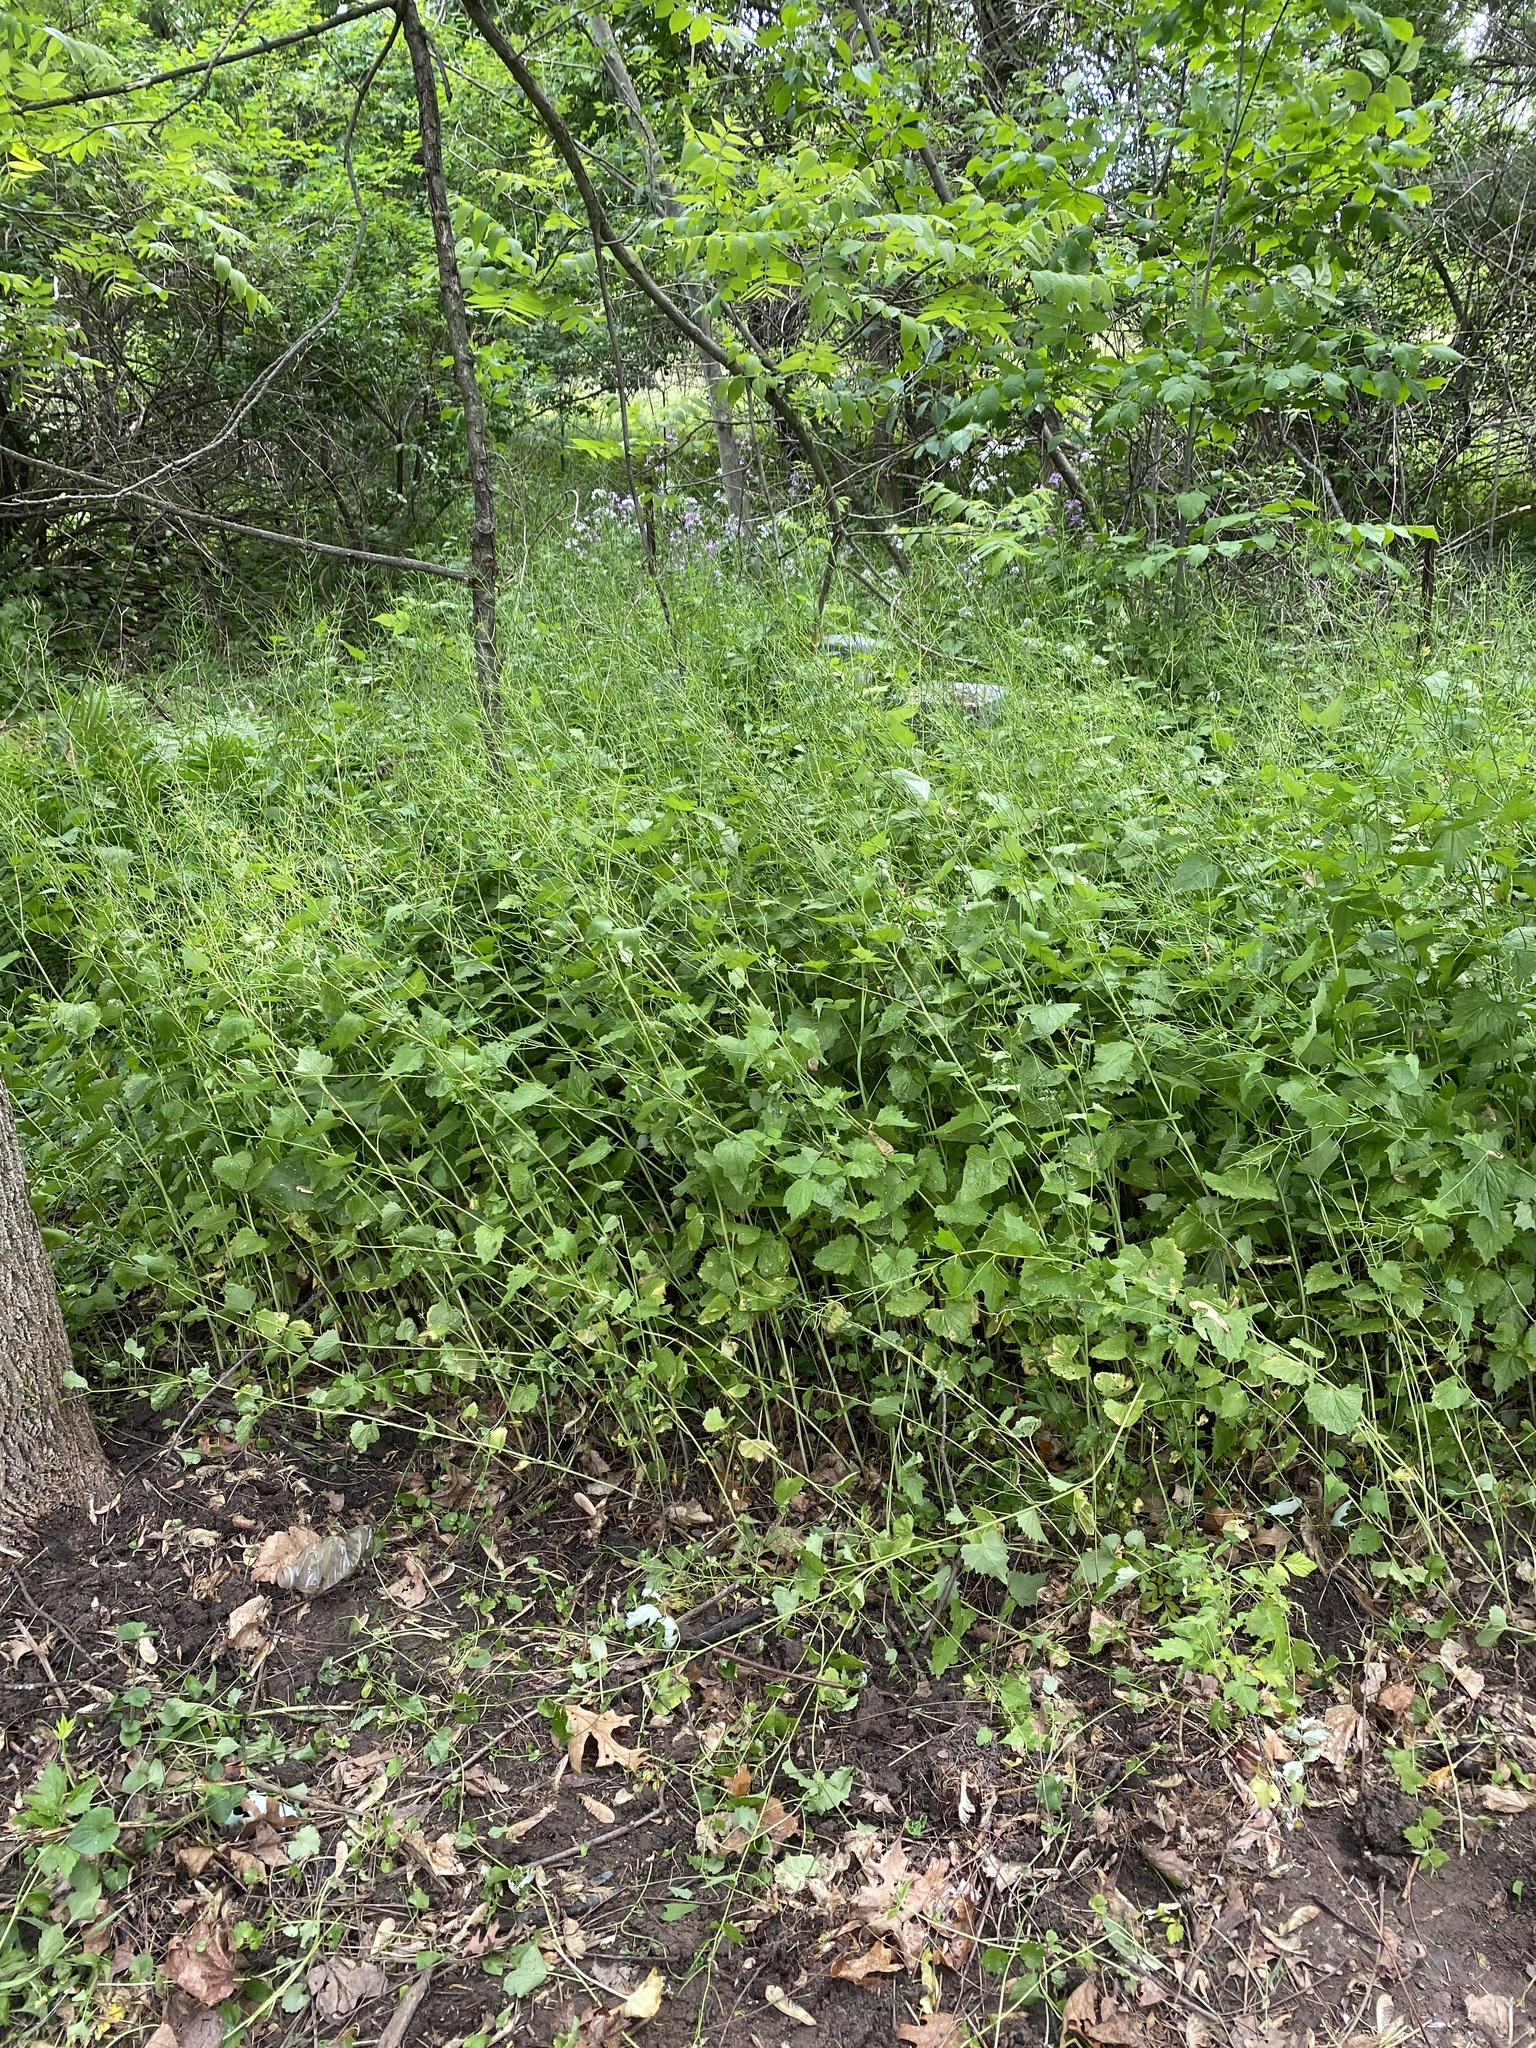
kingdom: Plantae
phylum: Tracheophyta
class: Magnoliopsida
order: Brassicales
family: Brassicaceae
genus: Alliaria
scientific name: Alliaria petiolata
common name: Garlic mustard
